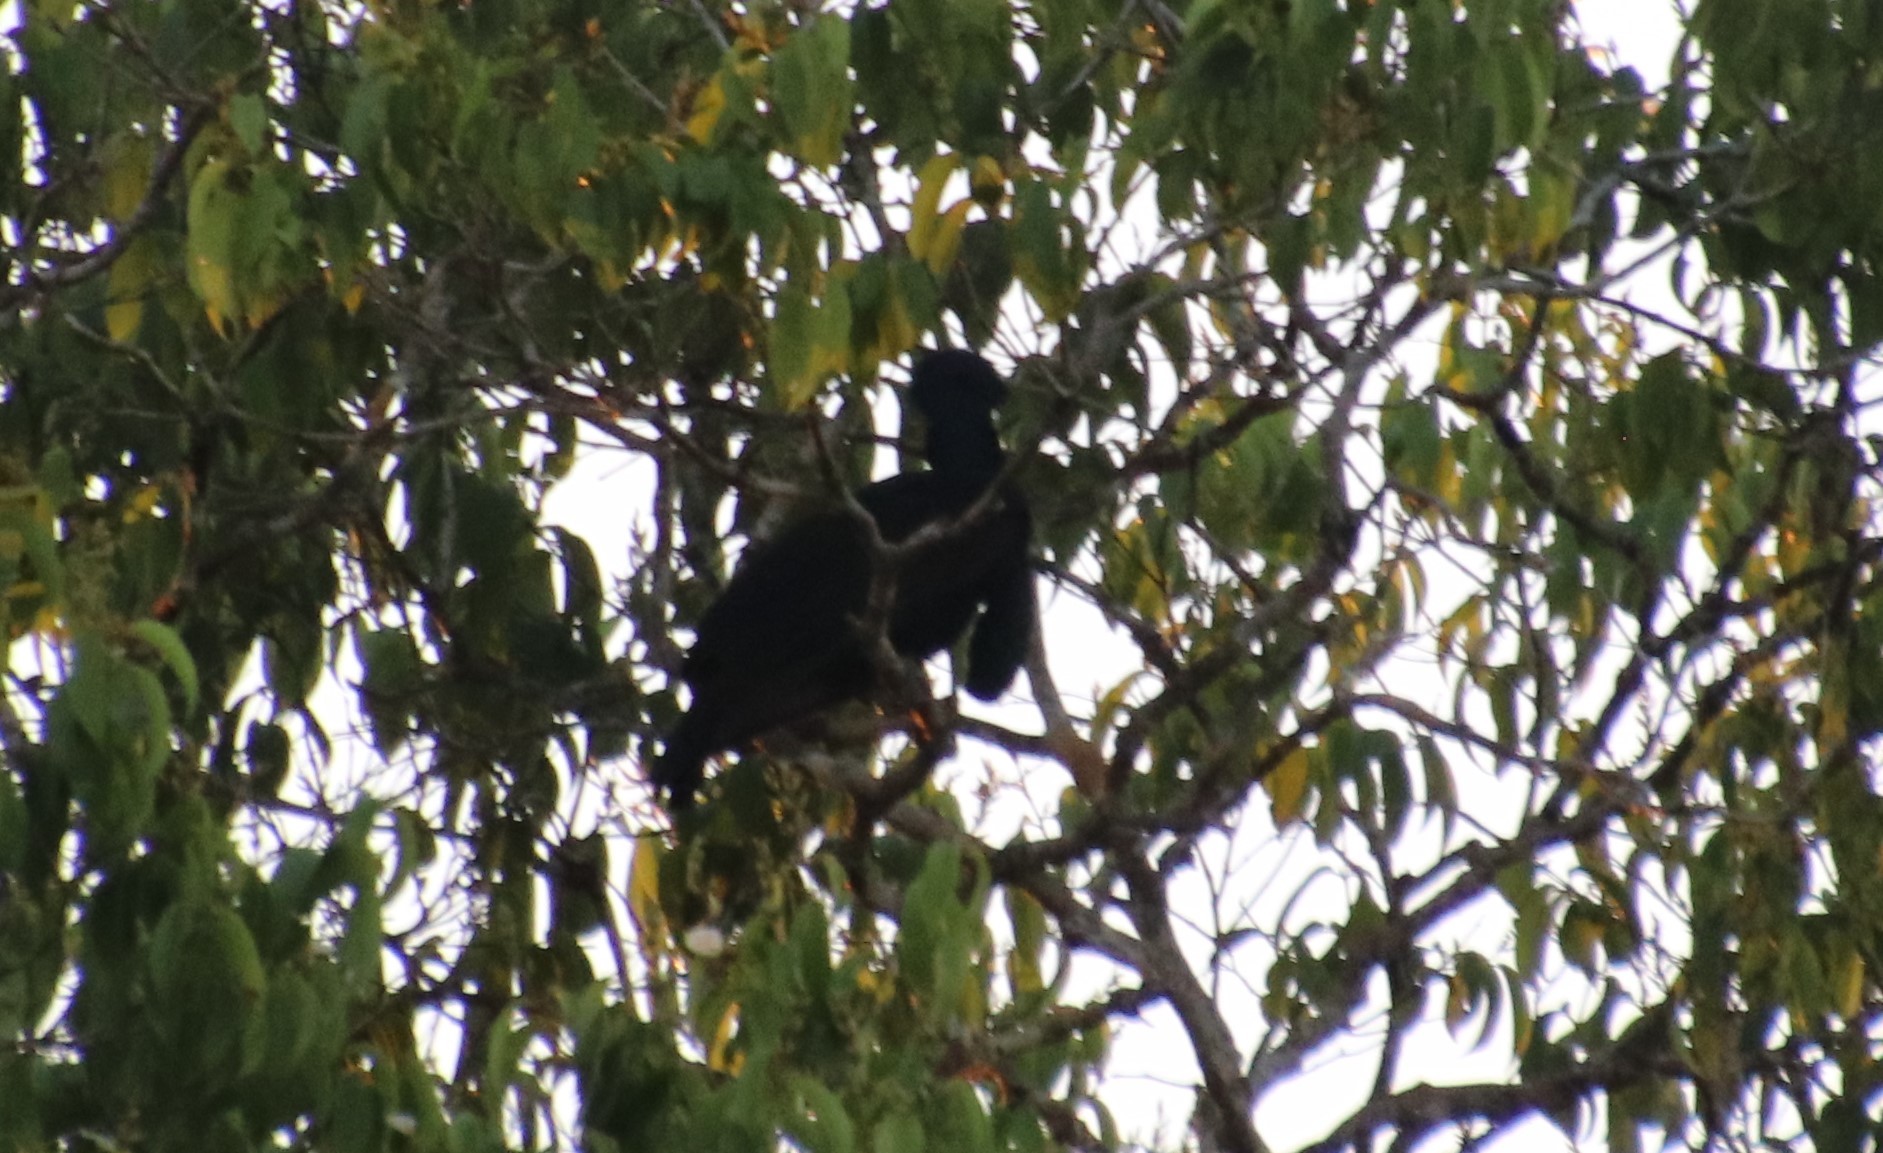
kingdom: Animalia
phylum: Chordata
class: Aves
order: Passeriformes
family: Cotingidae
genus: Cephalopterus
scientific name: Cephalopterus ornatus
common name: Amazonian umbrellabird
